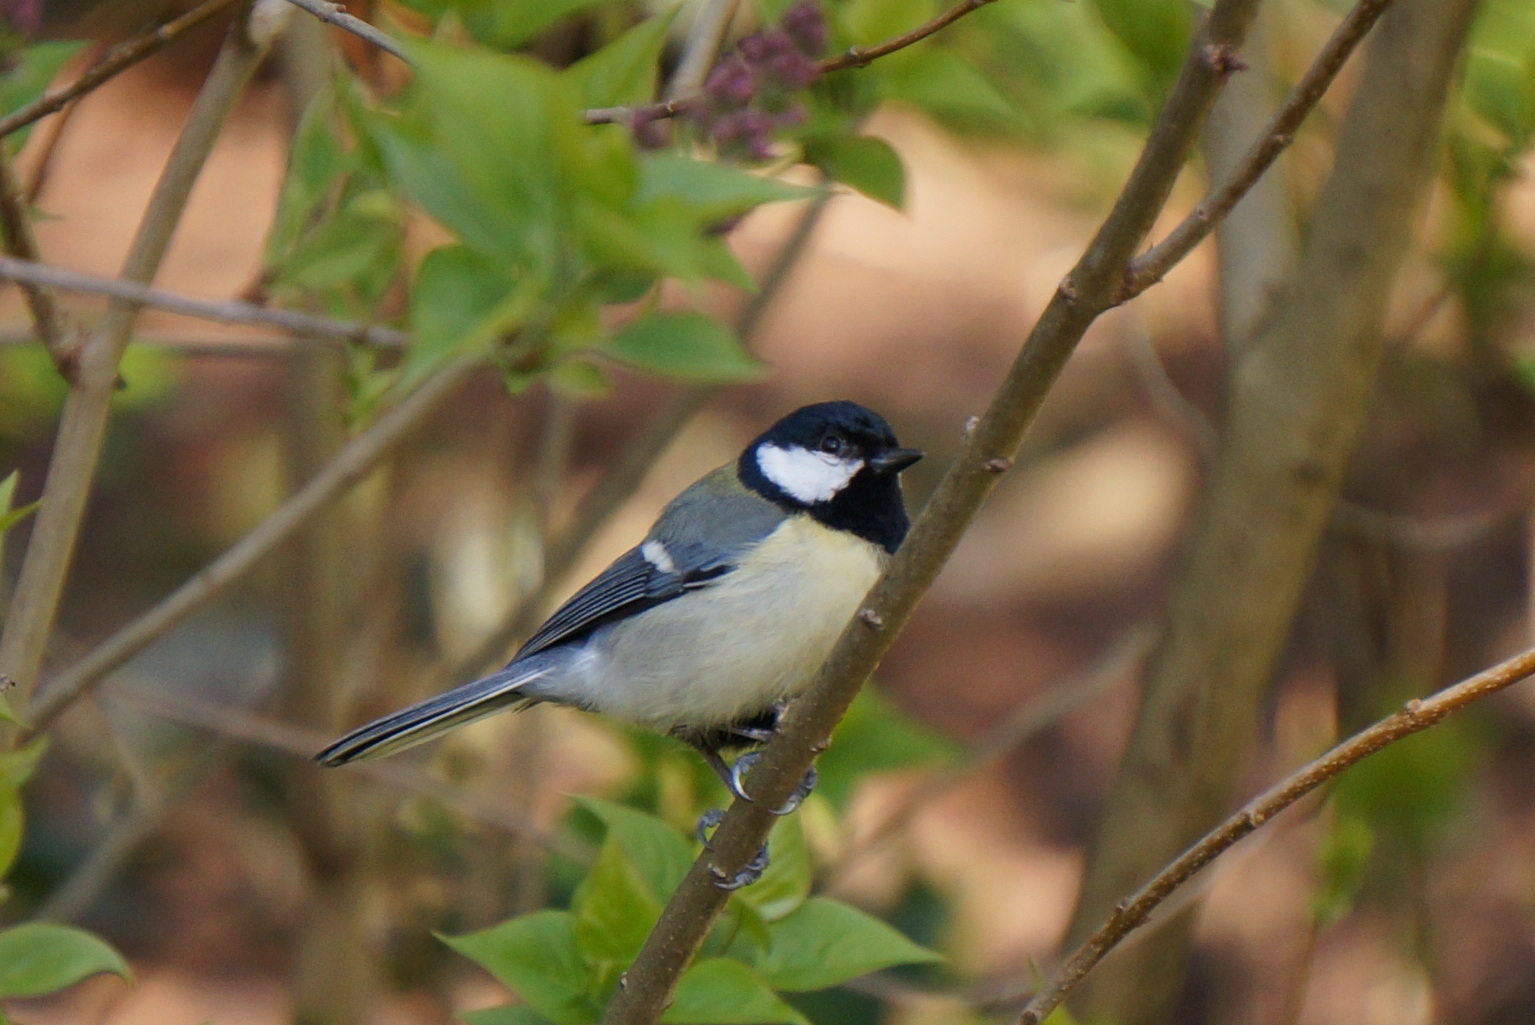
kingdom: Animalia
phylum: Chordata
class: Aves
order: Passeriformes
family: Paridae
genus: Parus
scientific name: Parus major
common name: Great tit
